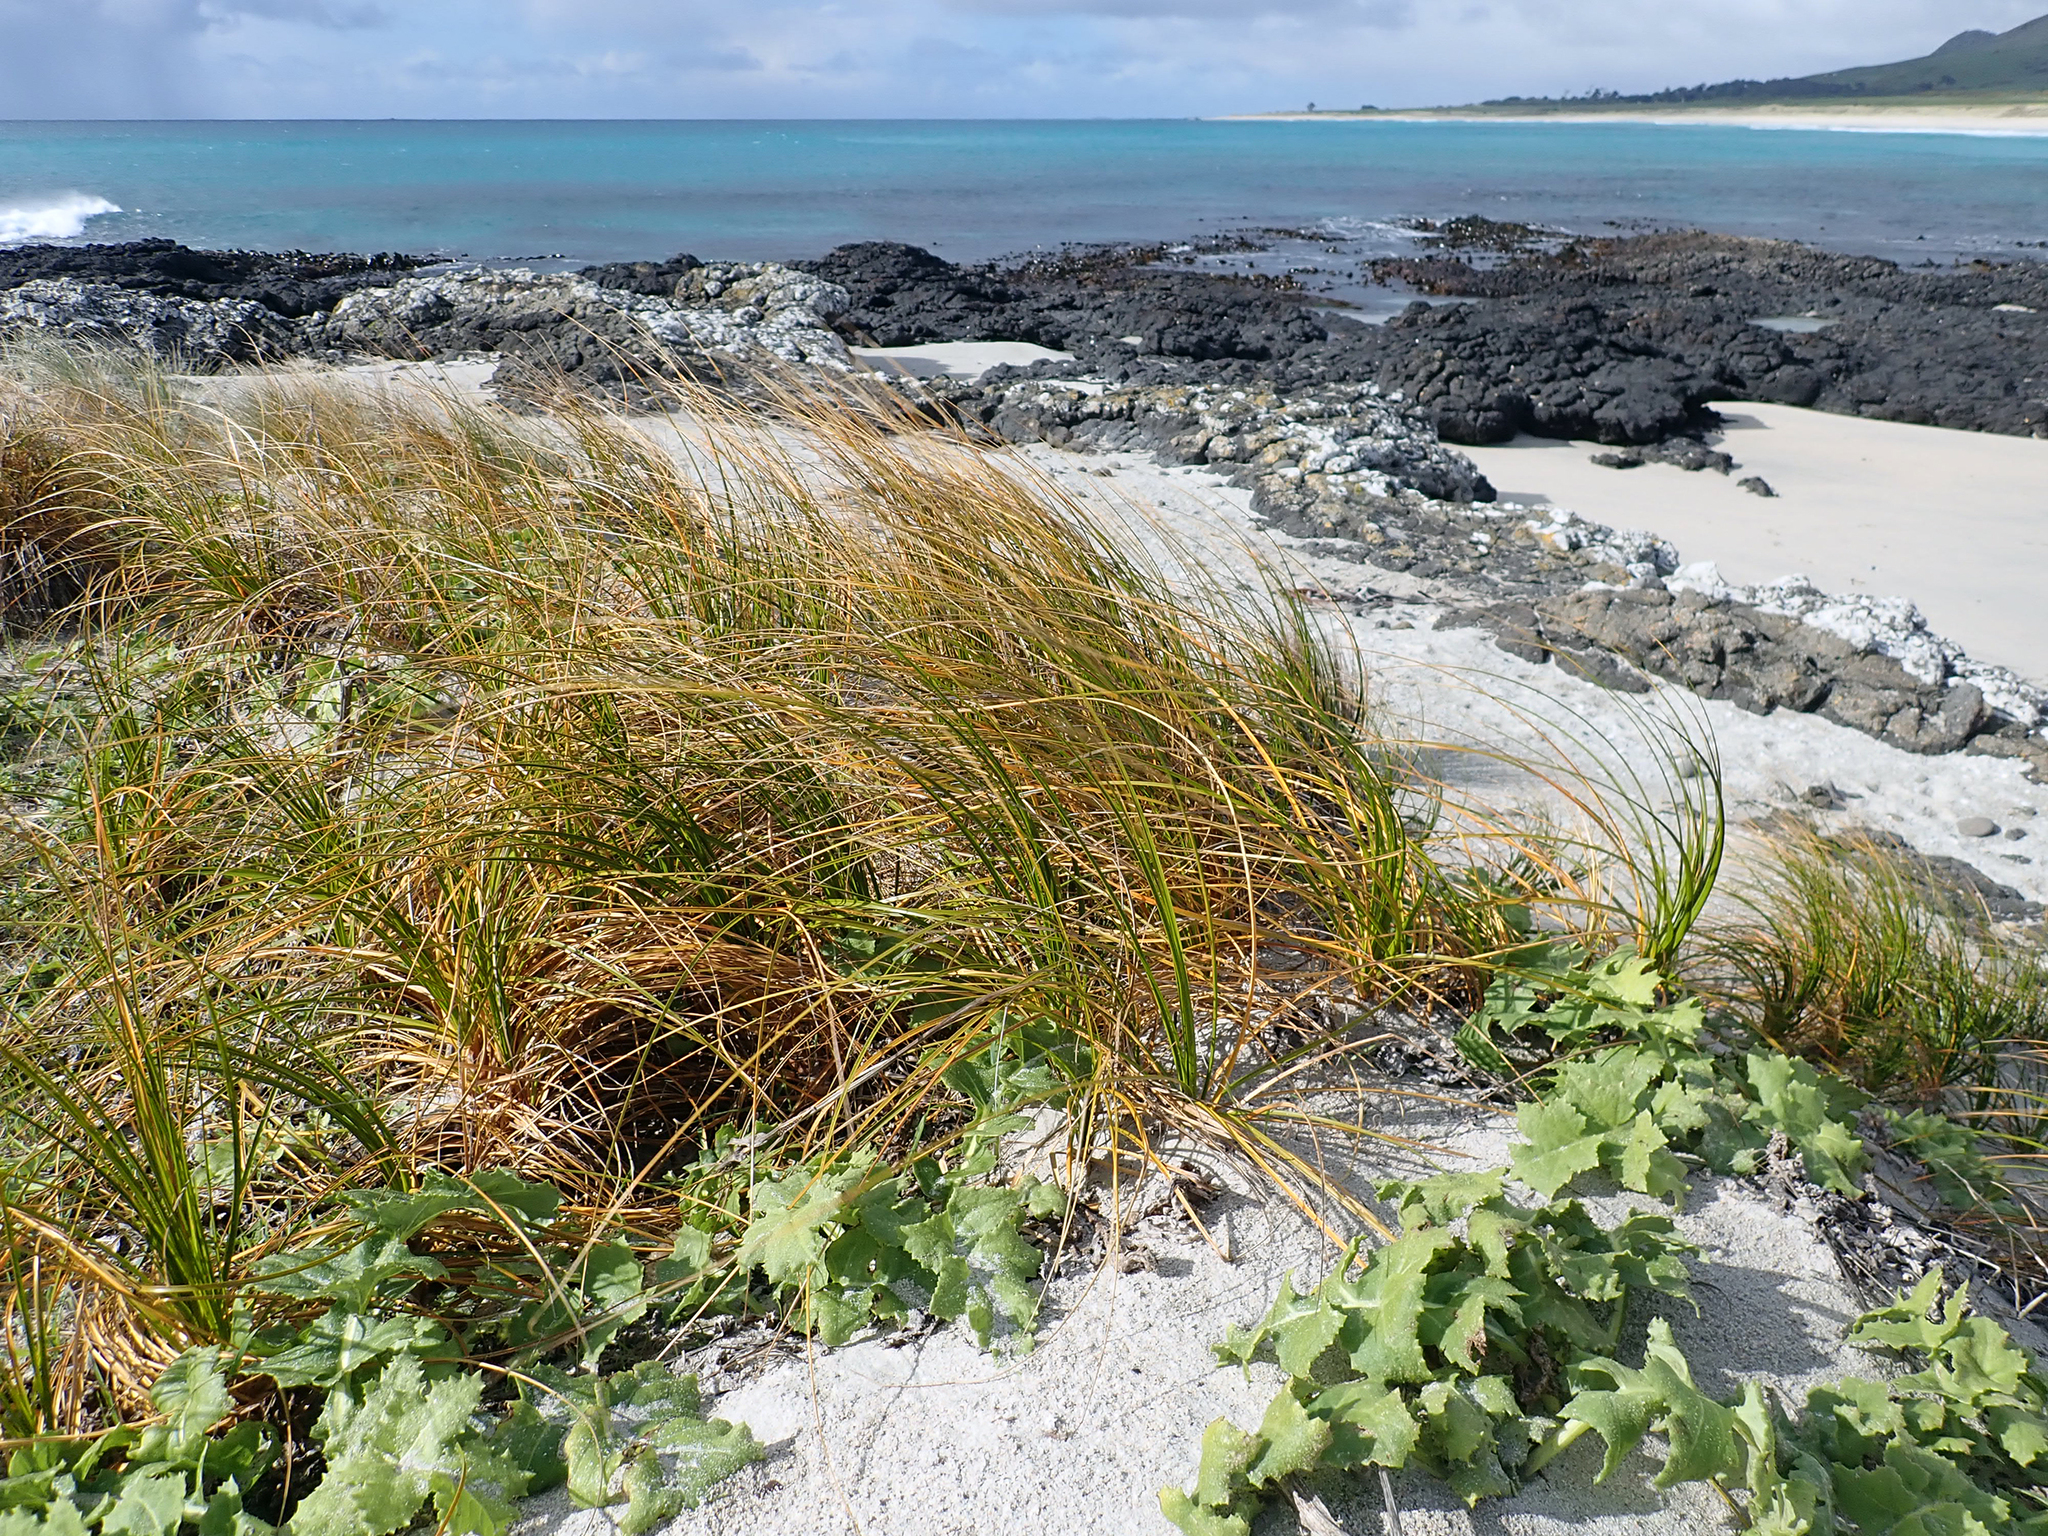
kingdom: Plantae
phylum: Tracheophyta
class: Magnoliopsida
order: Asterales
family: Asteraceae
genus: Sonchus
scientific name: Sonchus grandifolius
